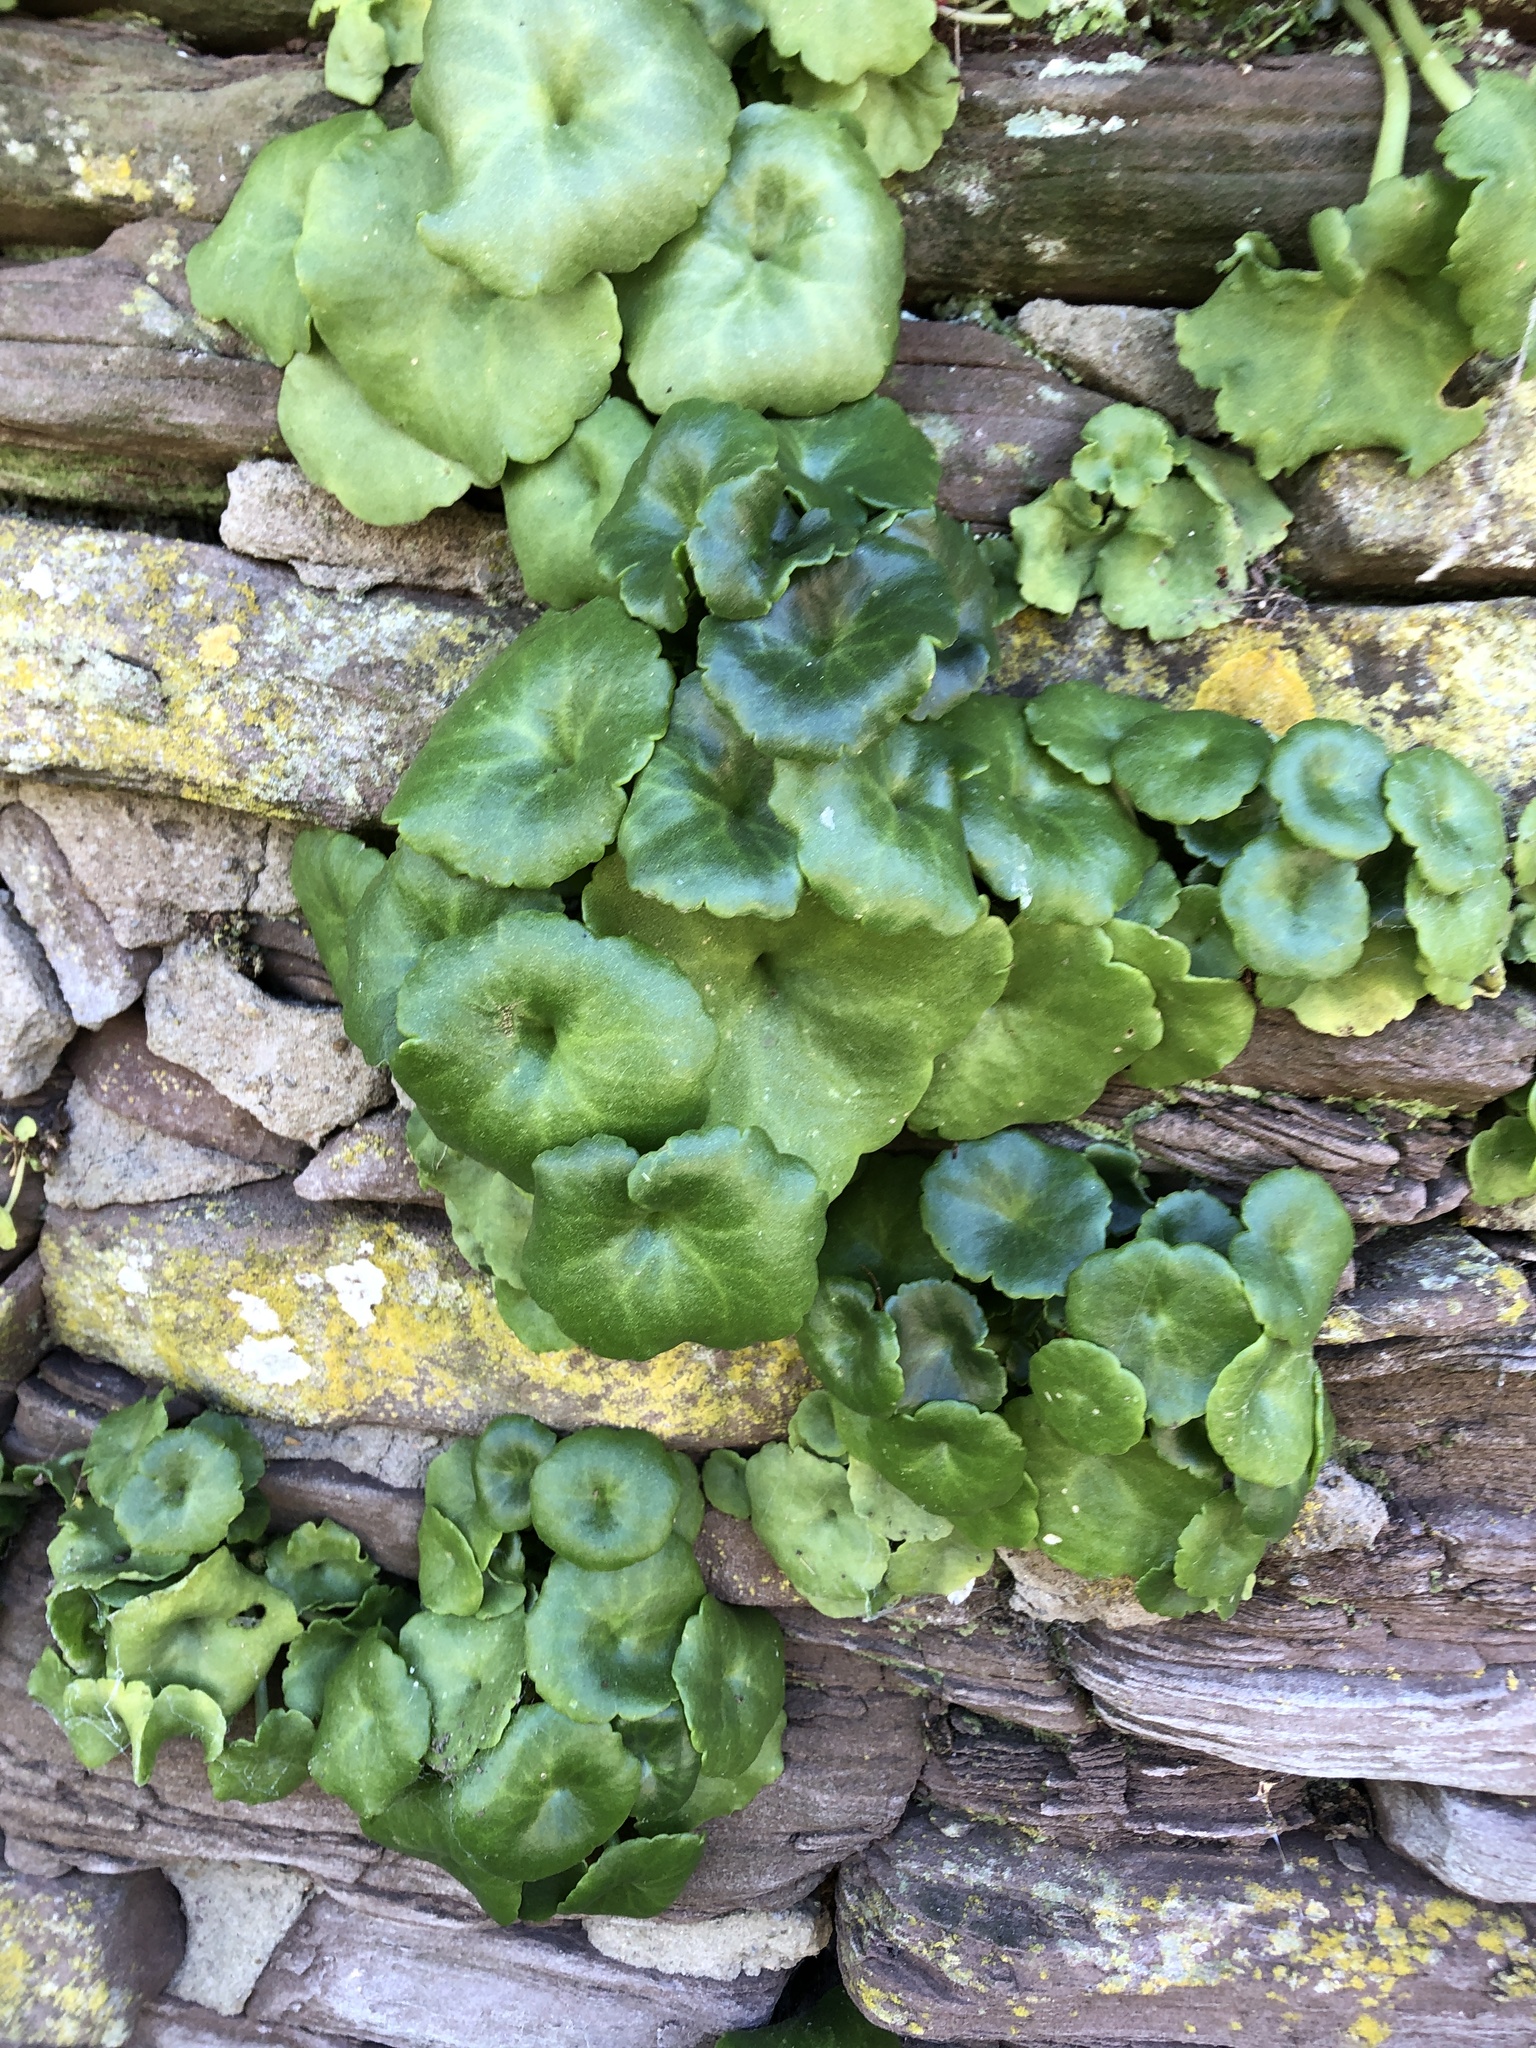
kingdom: Plantae
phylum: Tracheophyta
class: Magnoliopsida
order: Saxifragales
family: Crassulaceae
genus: Umbilicus
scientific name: Umbilicus rupestris
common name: Navelwort
